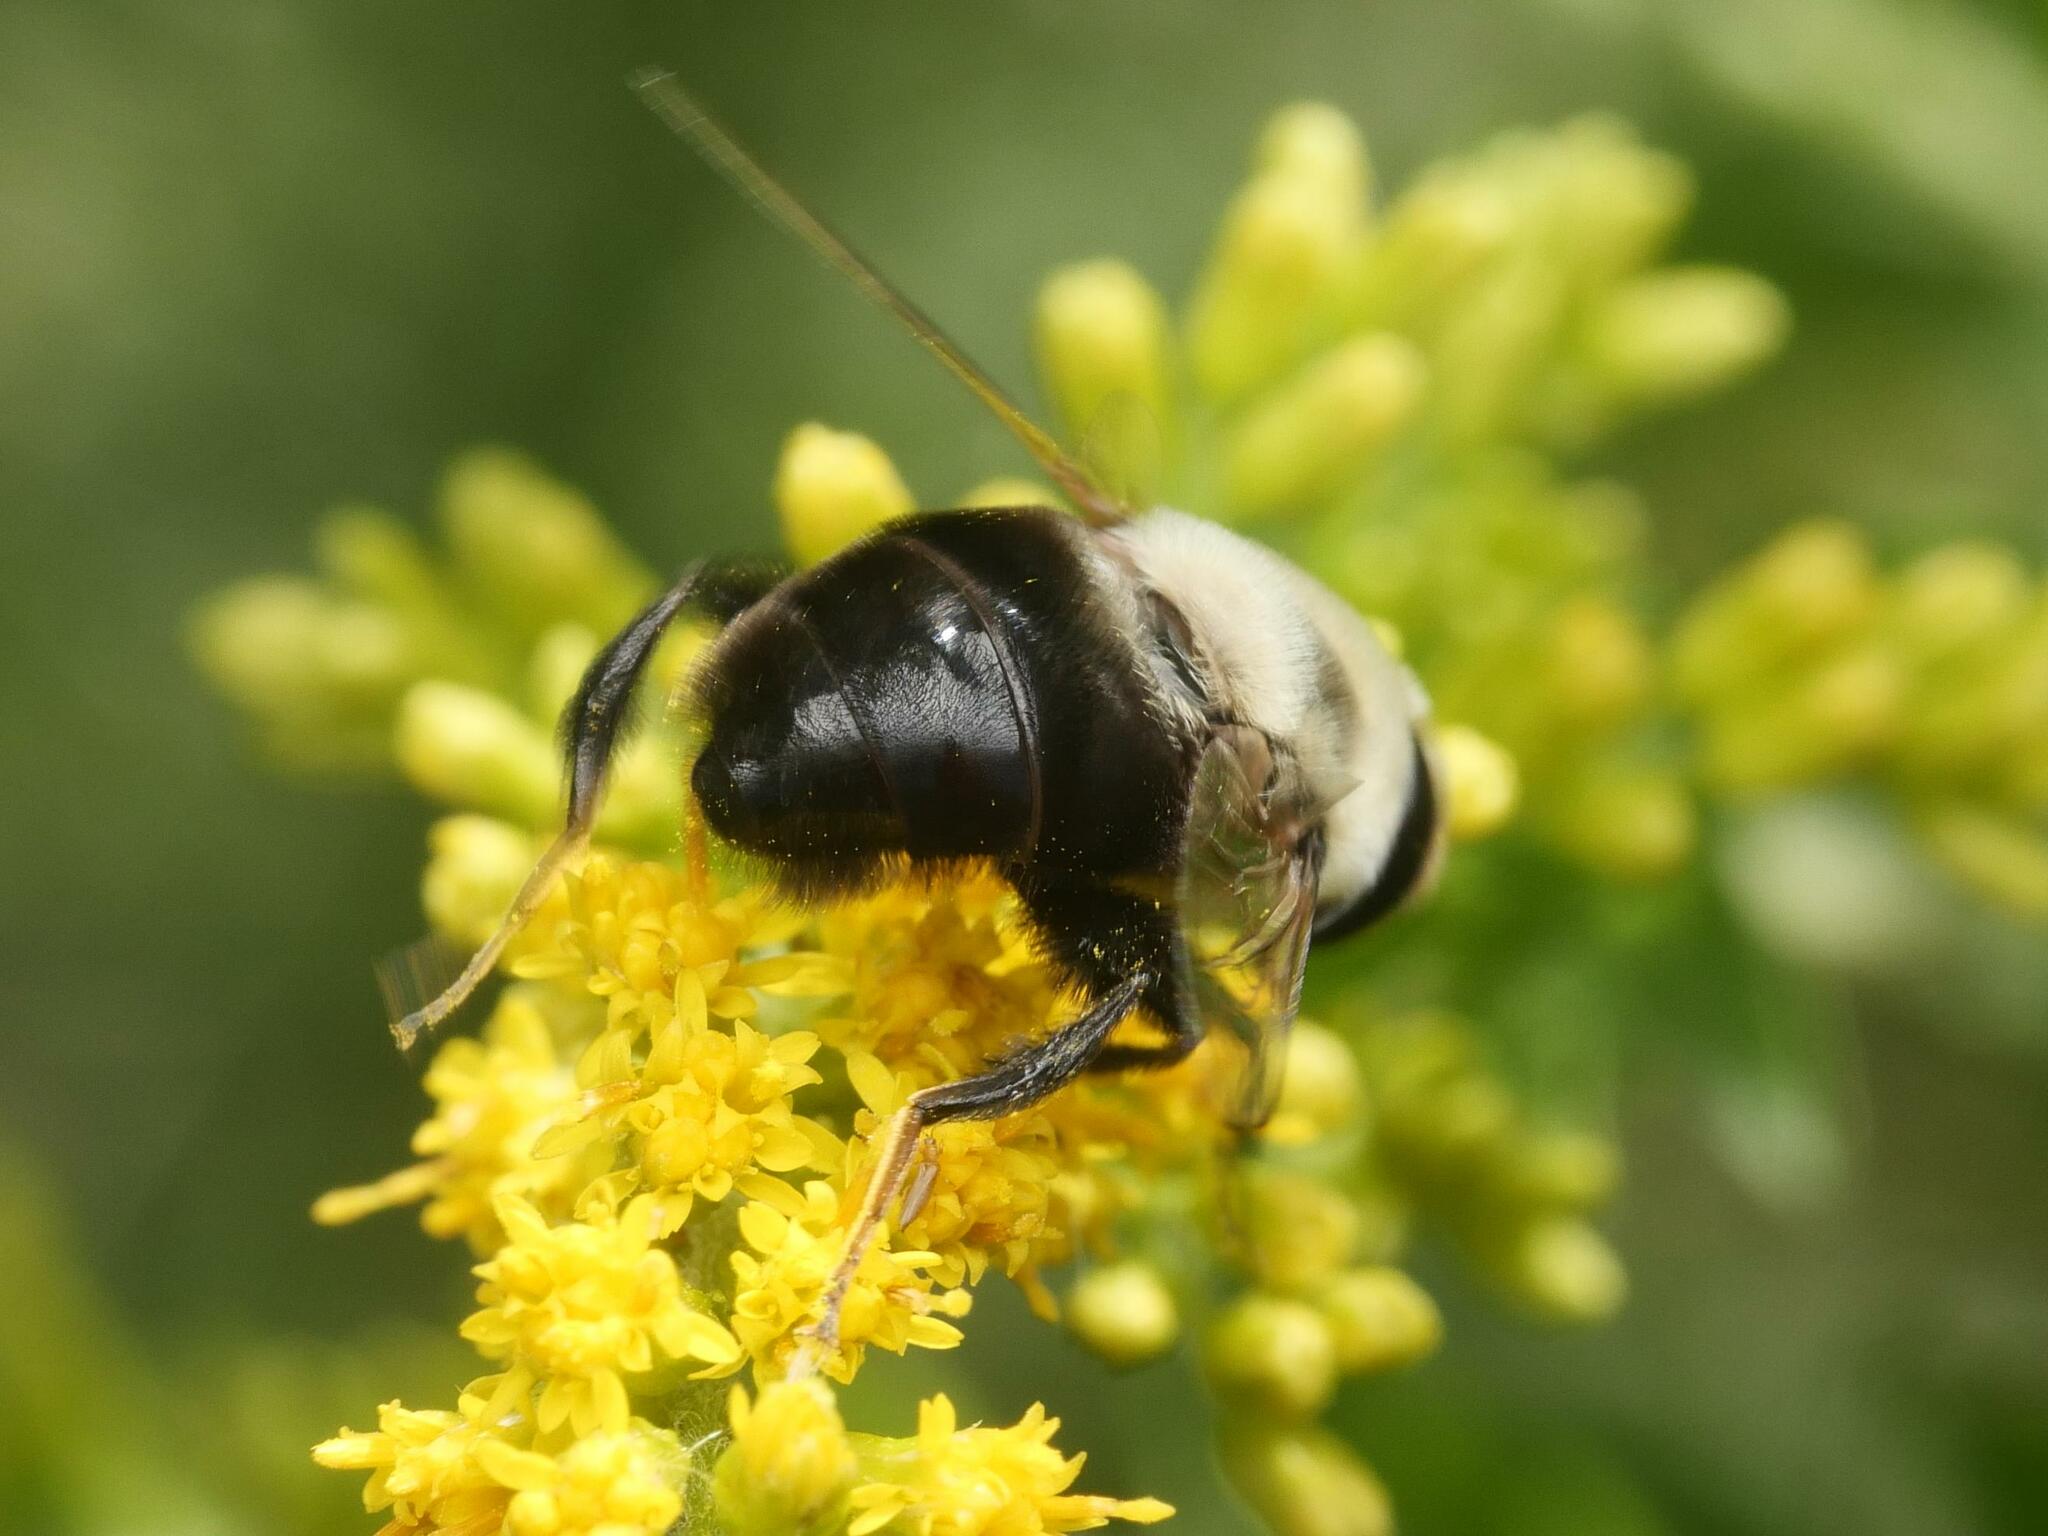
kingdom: Animalia
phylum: Arthropoda
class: Insecta
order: Diptera
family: Syrphidae
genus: Eristalis
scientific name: Eristalis flavipes
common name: Orange-legged drone fly
